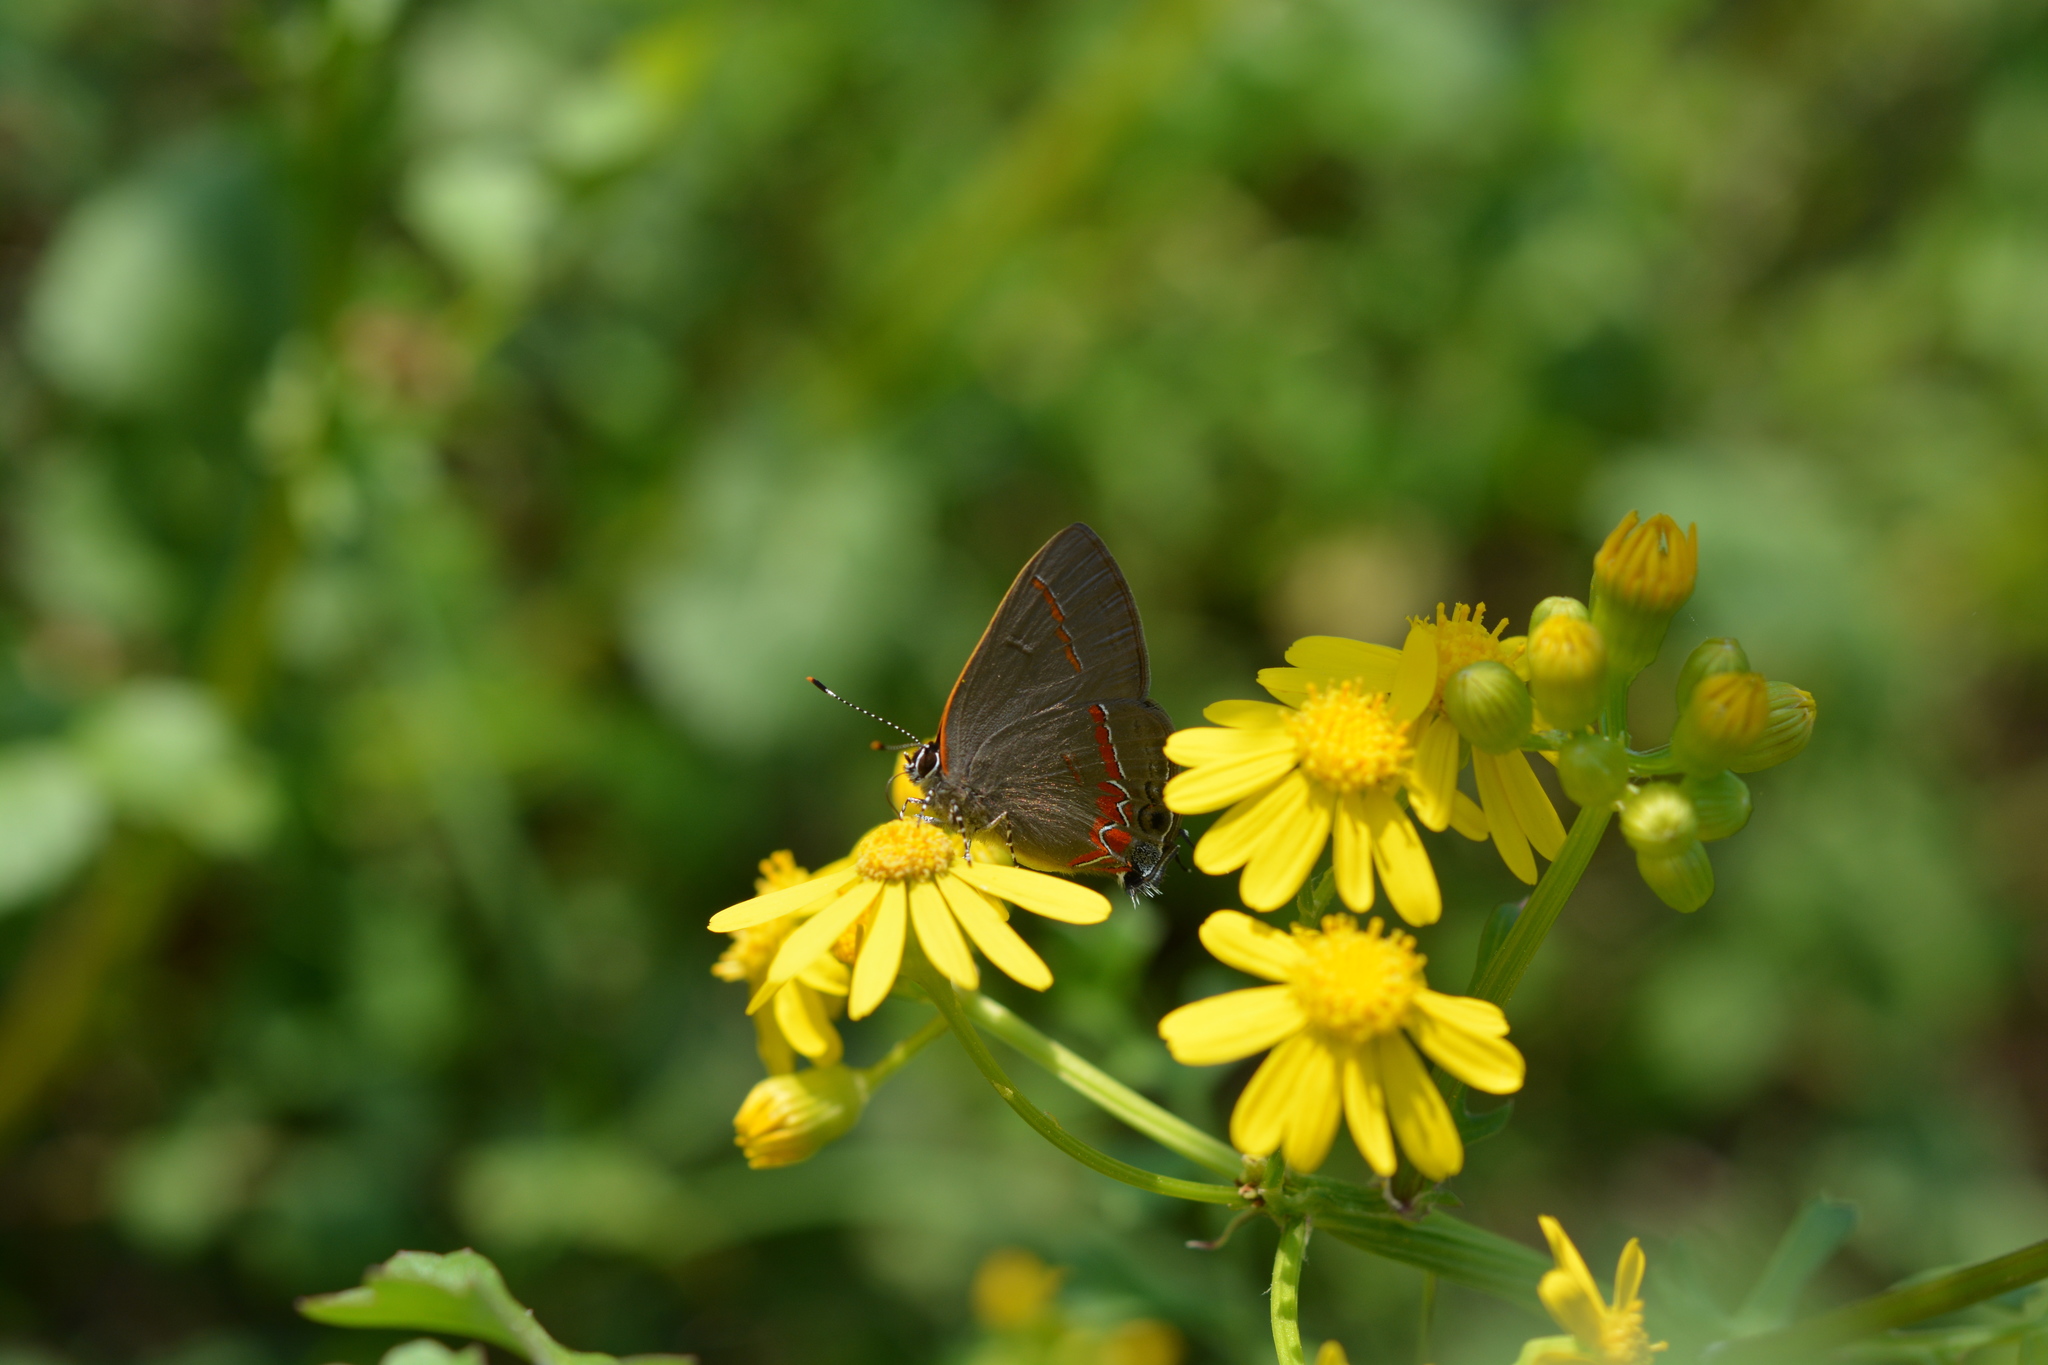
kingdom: Animalia
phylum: Arthropoda
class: Insecta
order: Lepidoptera
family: Lycaenidae
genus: Calycopis
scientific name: Calycopis cecrops
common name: Red-banded hairstreak
